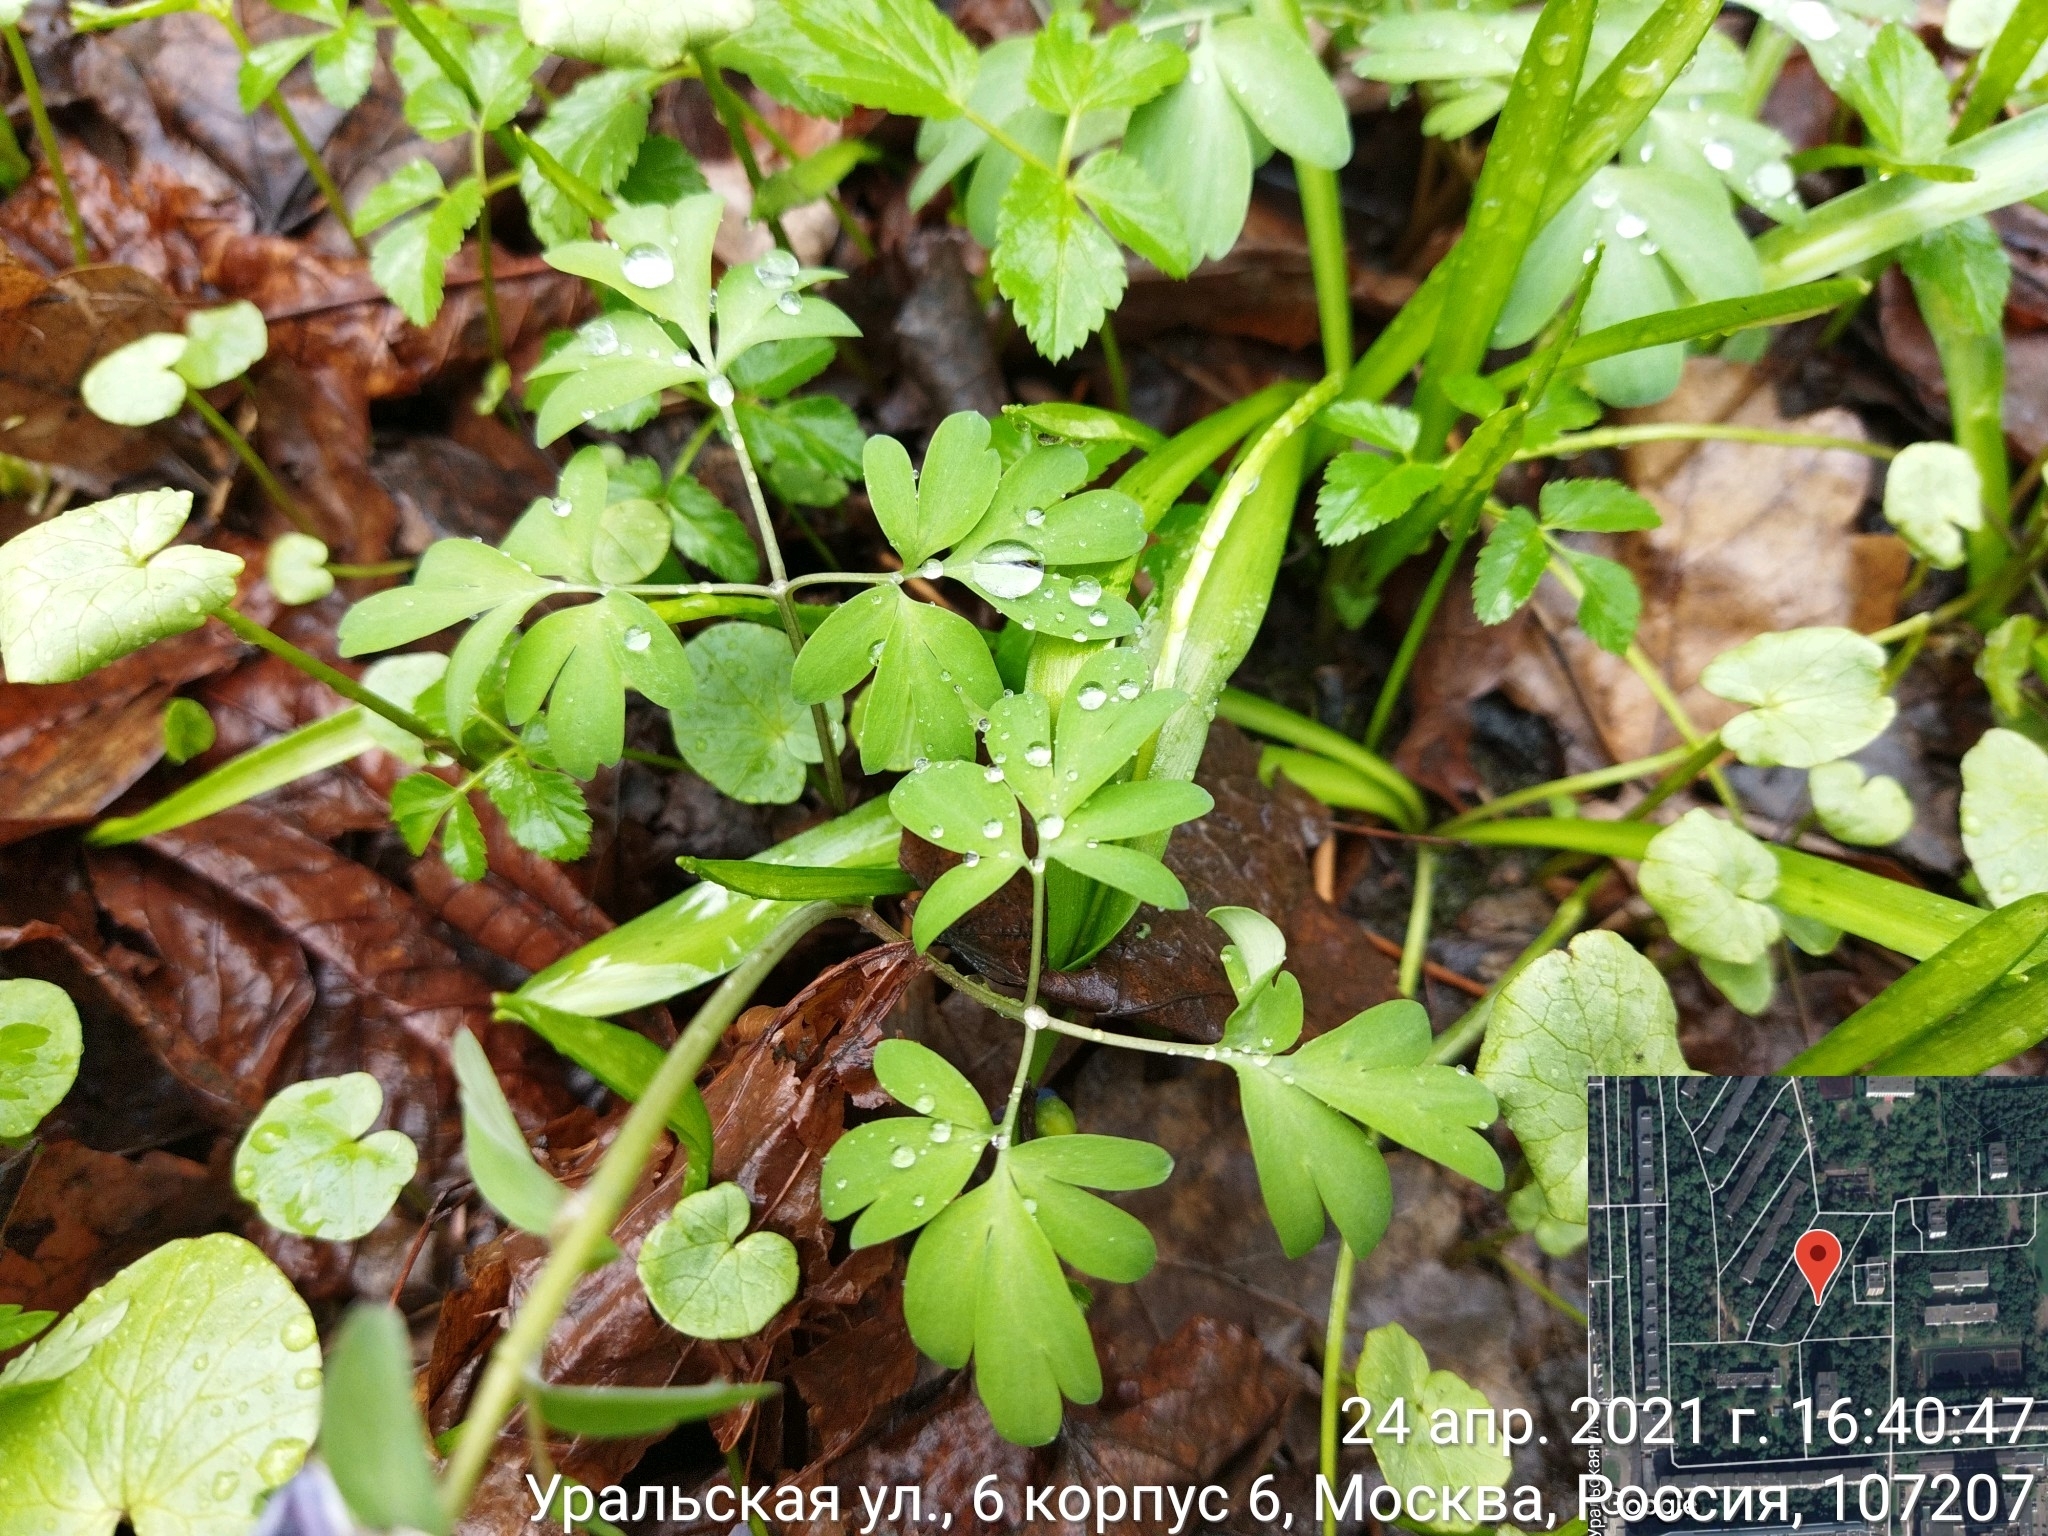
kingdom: Plantae
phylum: Tracheophyta
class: Magnoliopsida
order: Ranunculales
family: Papaveraceae
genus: Corydalis
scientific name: Corydalis solida
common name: Bird-in-a-bush
